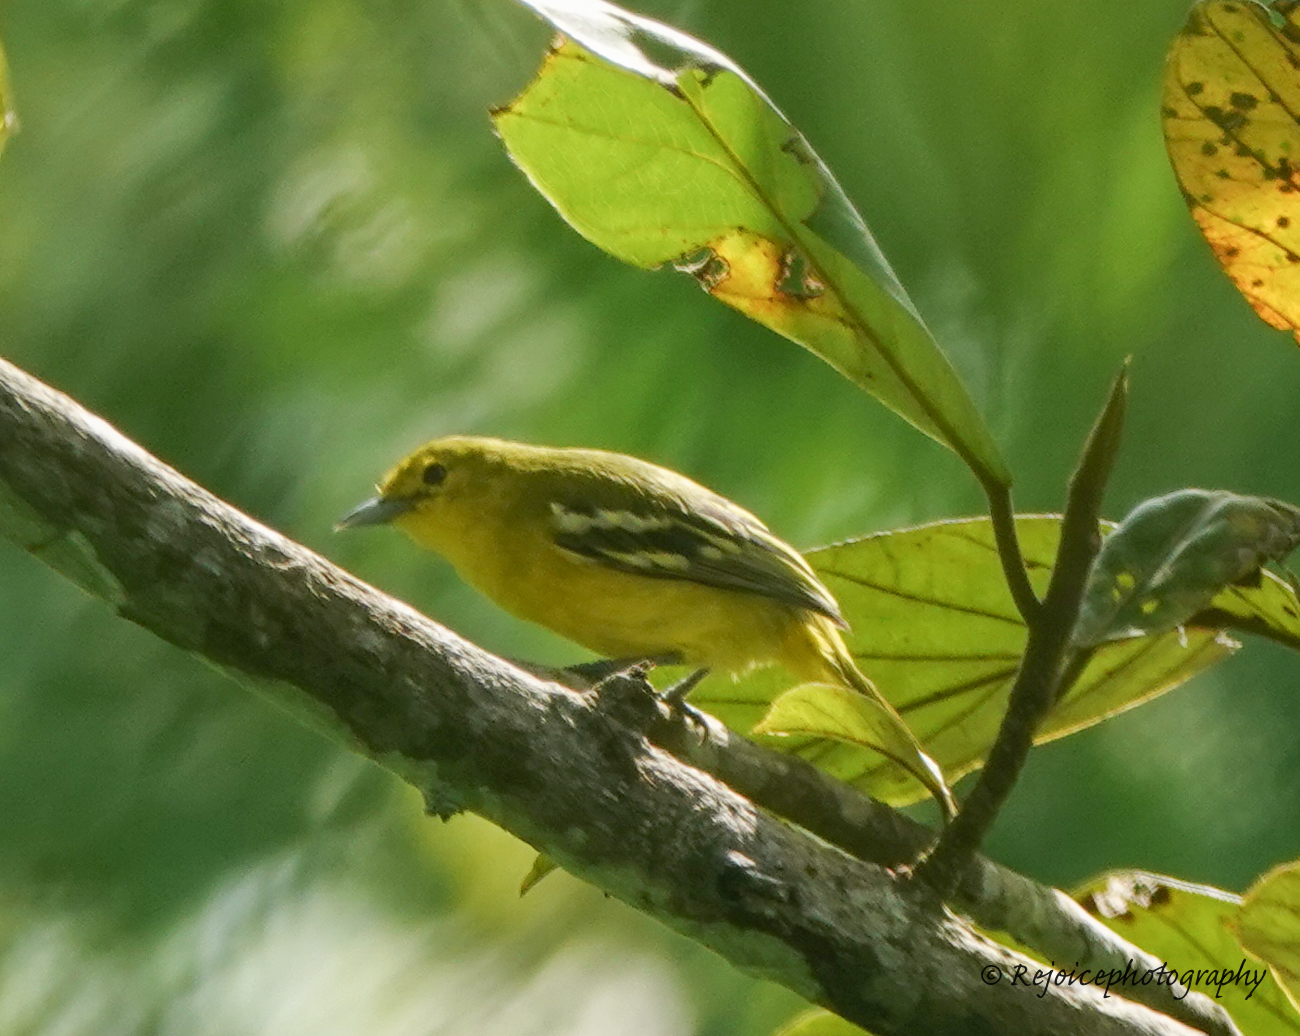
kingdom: Animalia
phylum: Chordata
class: Aves
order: Passeriformes
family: Aegithinidae
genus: Aegithina
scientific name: Aegithina tiphia
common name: Common iora
